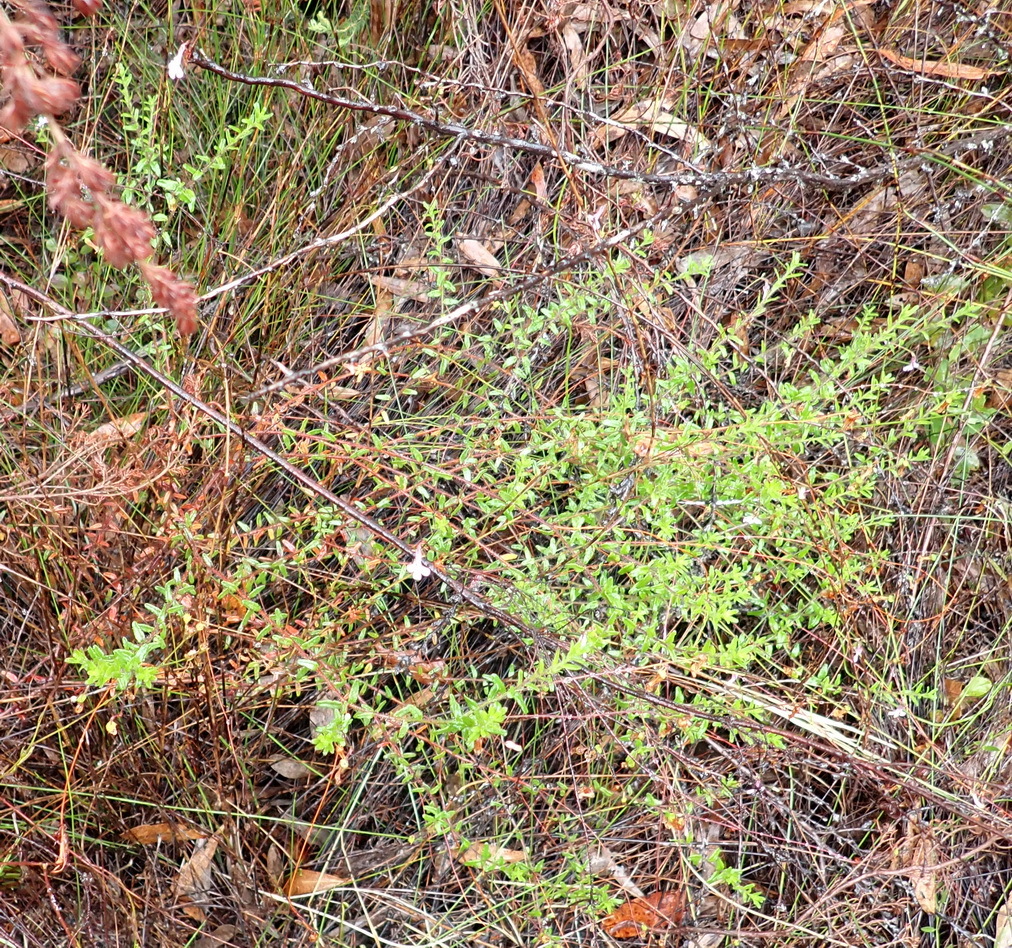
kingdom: Plantae
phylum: Tracheophyta
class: Magnoliopsida
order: Asterales
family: Campanulaceae
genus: Lobelia
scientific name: Lobelia neglecta
